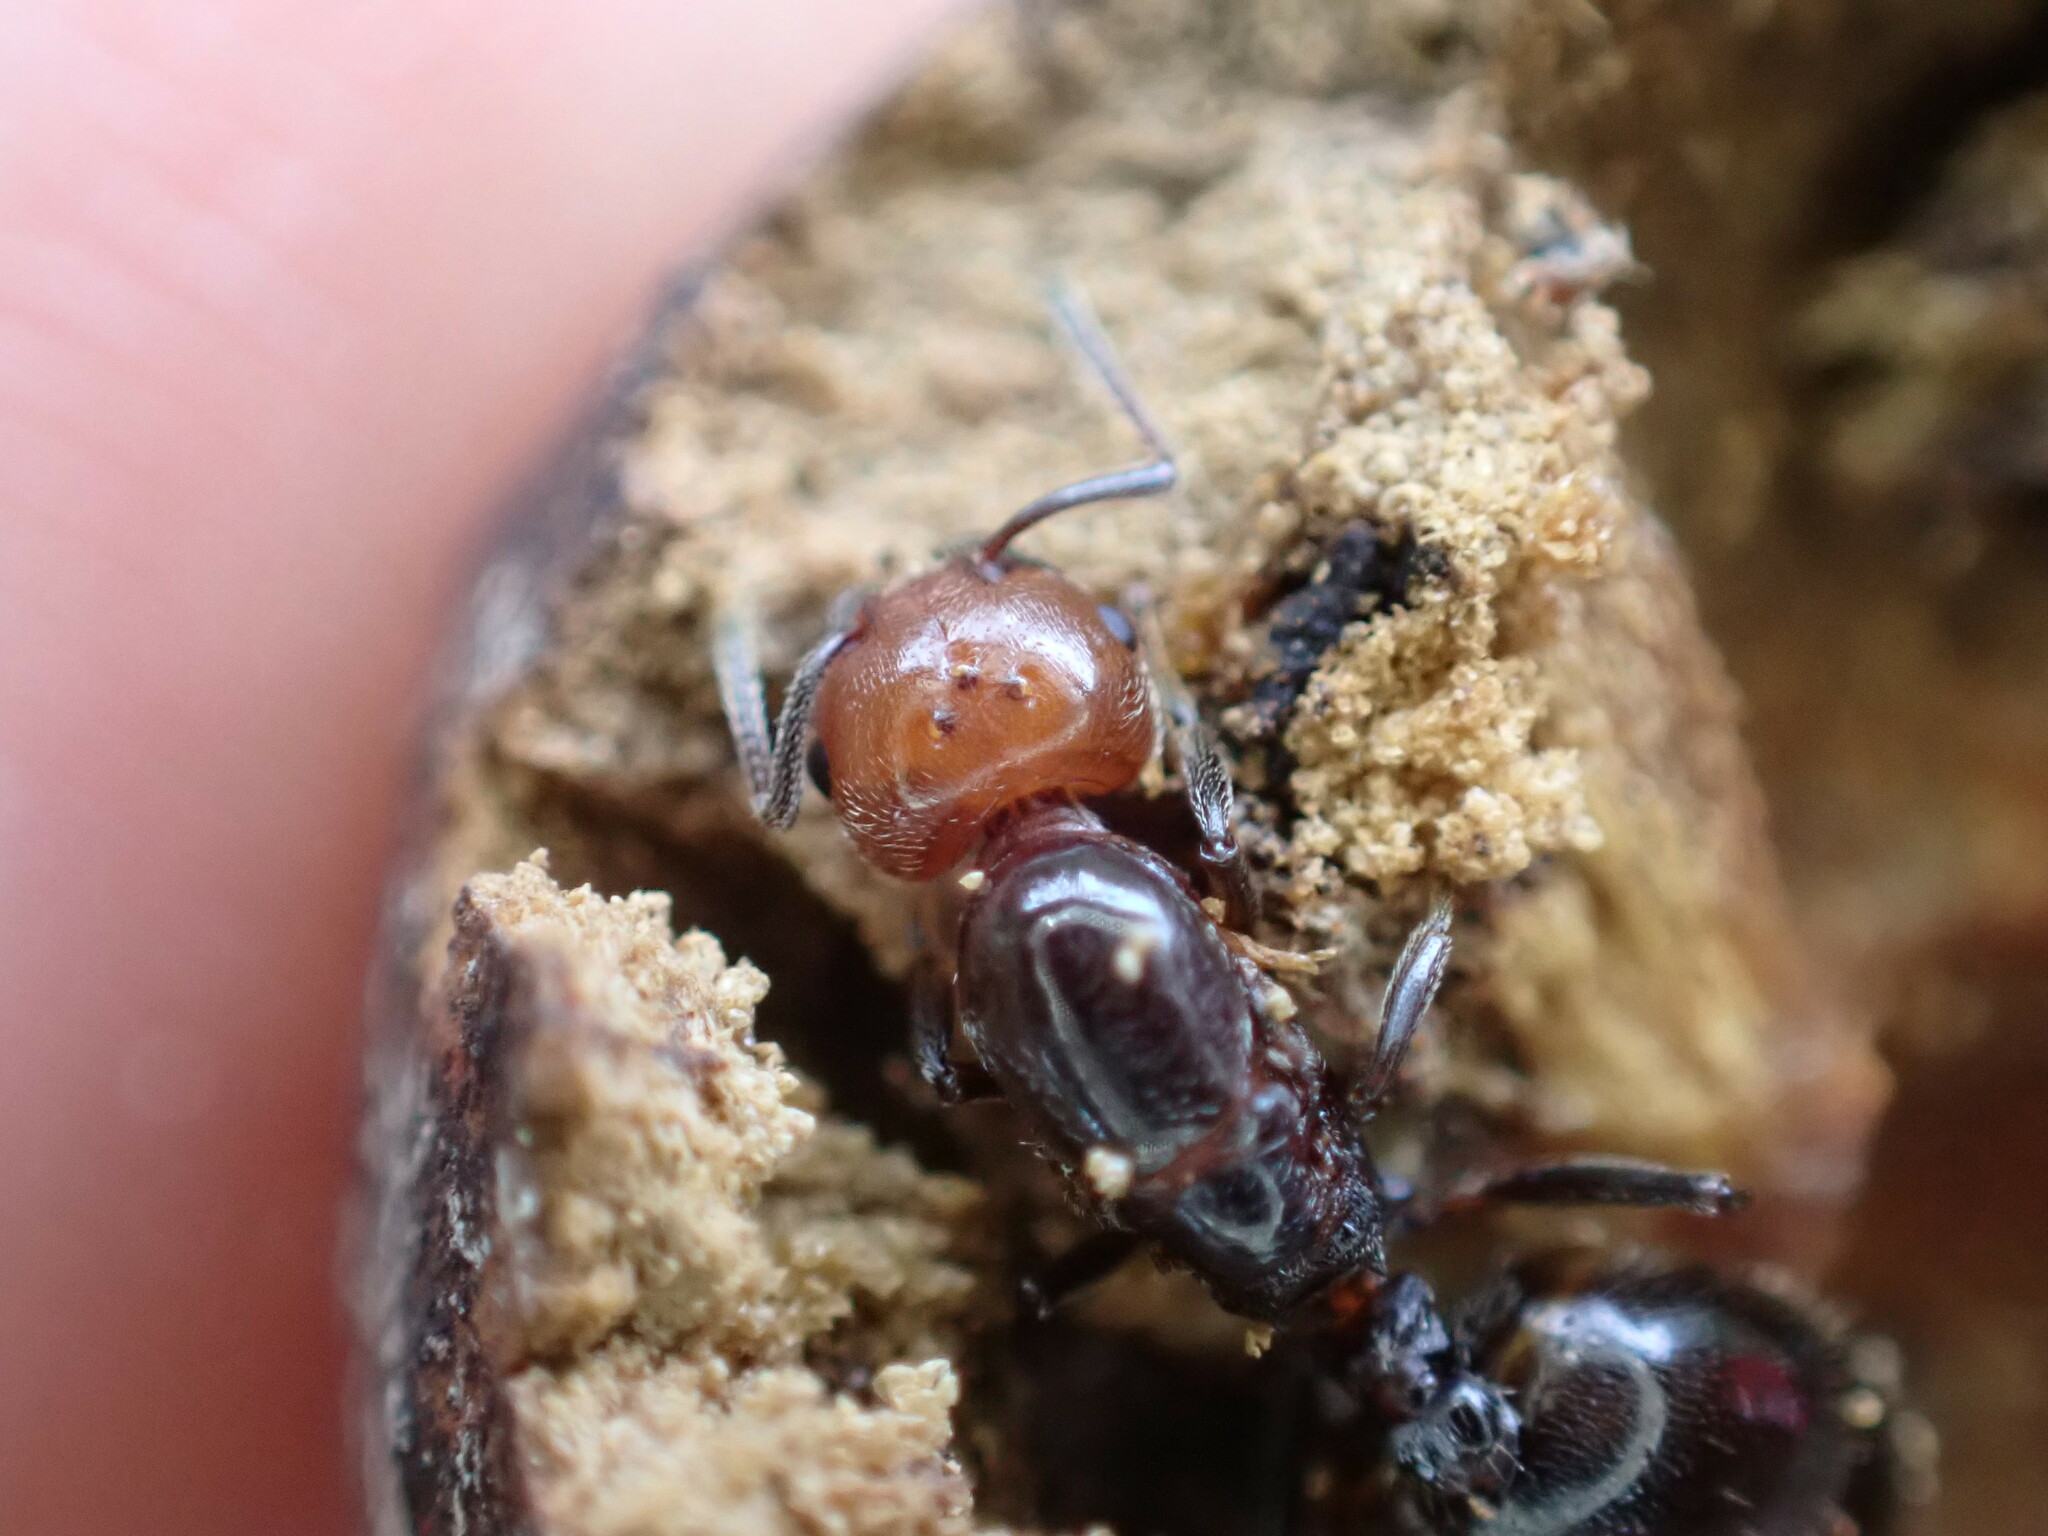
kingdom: Animalia
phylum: Arthropoda
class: Insecta
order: Hymenoptera
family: Formicidae
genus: Crematogaster
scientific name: Crematogaster scutellaris
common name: Fourmi du liège
